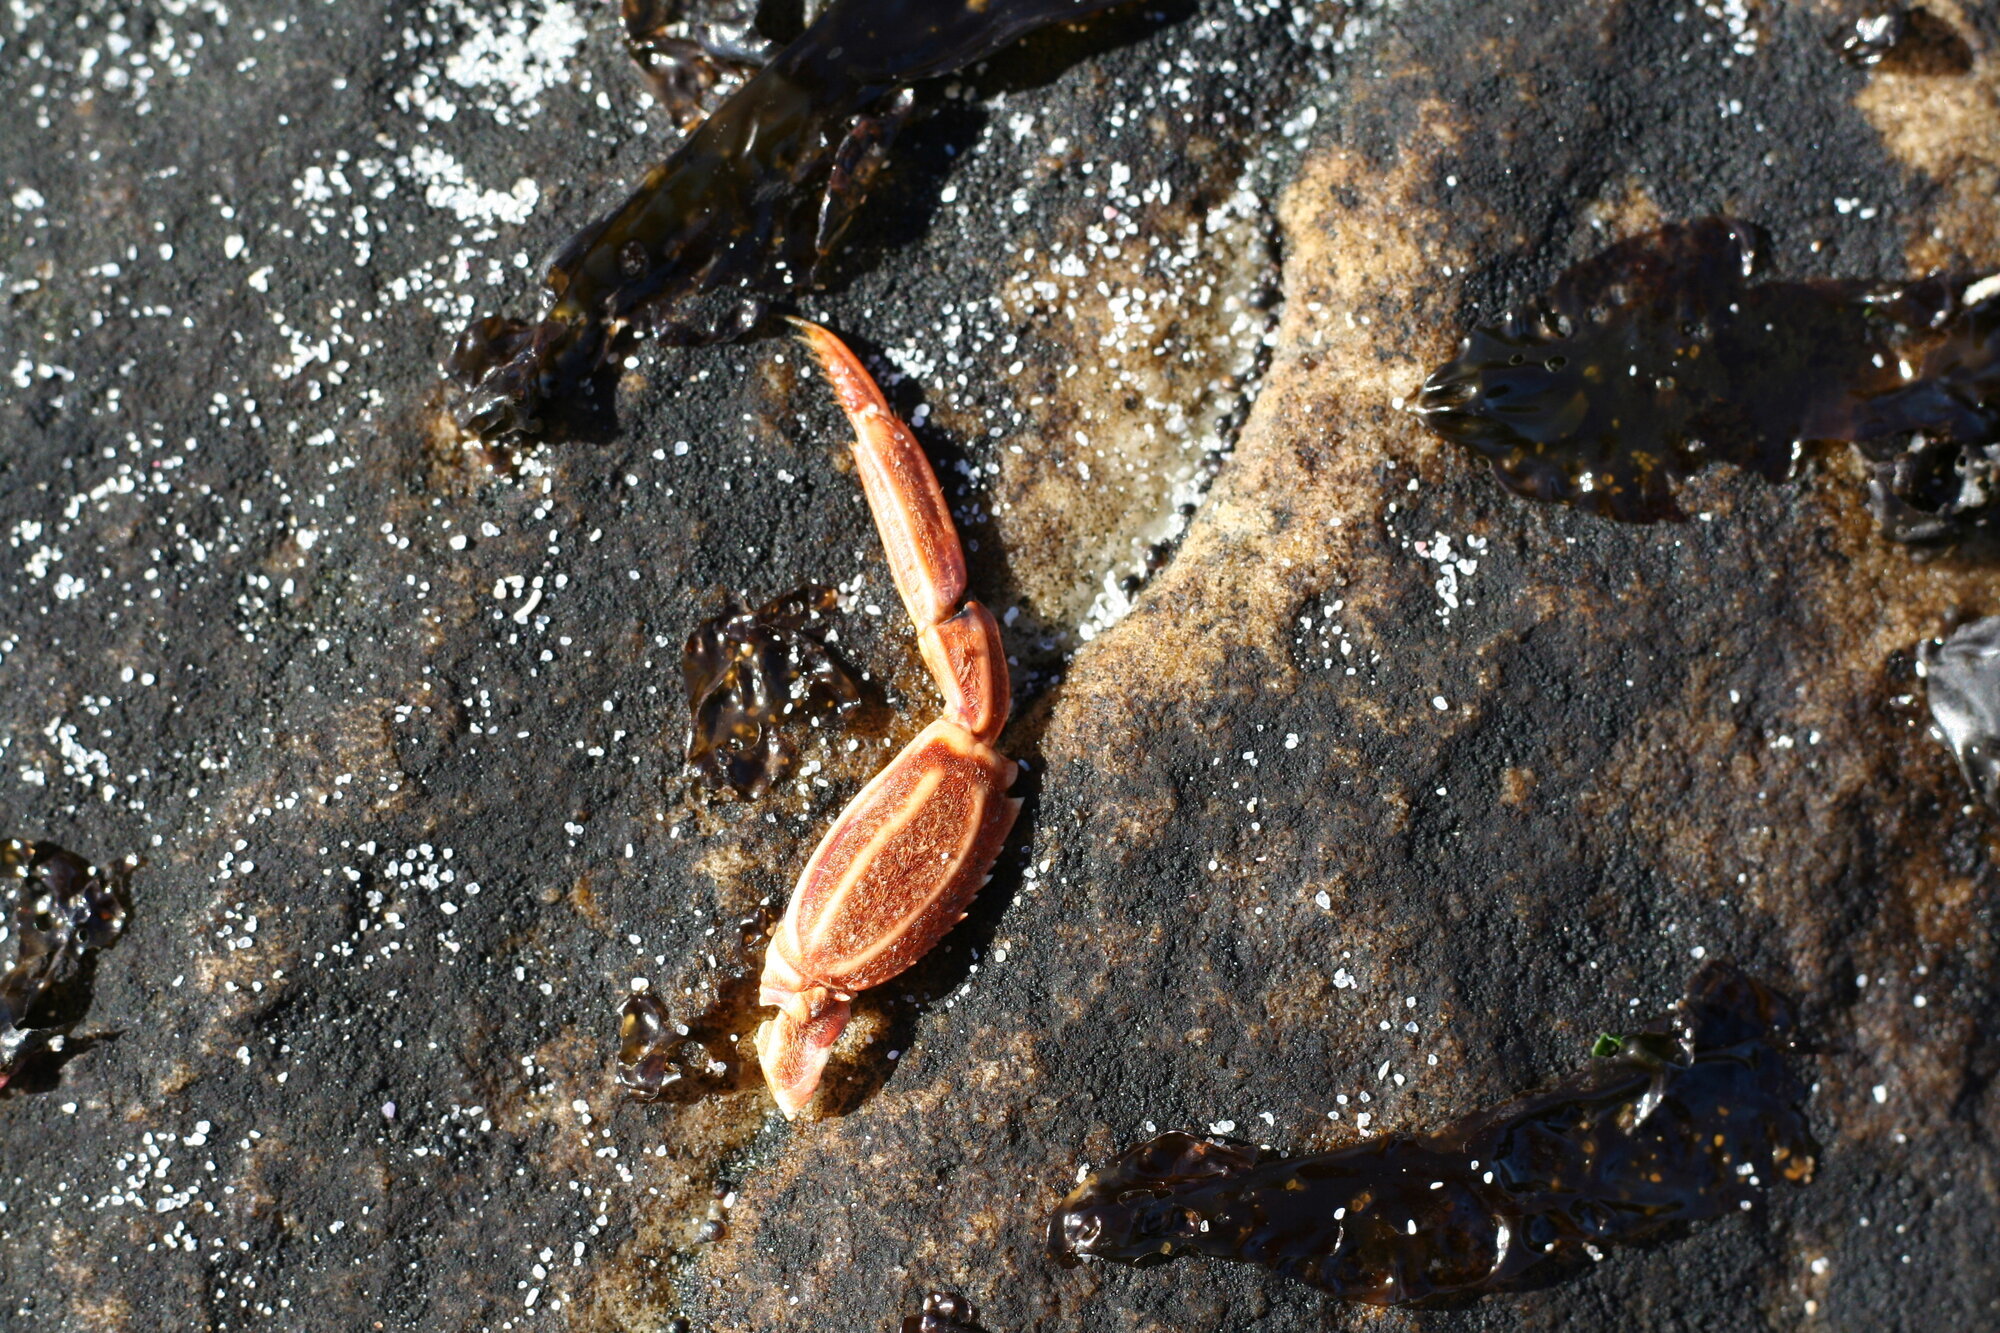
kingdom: Animalia
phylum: Arthropoda
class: Malacostraca
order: Decapoda
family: Plagusiidae
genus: Guinusia
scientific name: Guinusia chabrus
